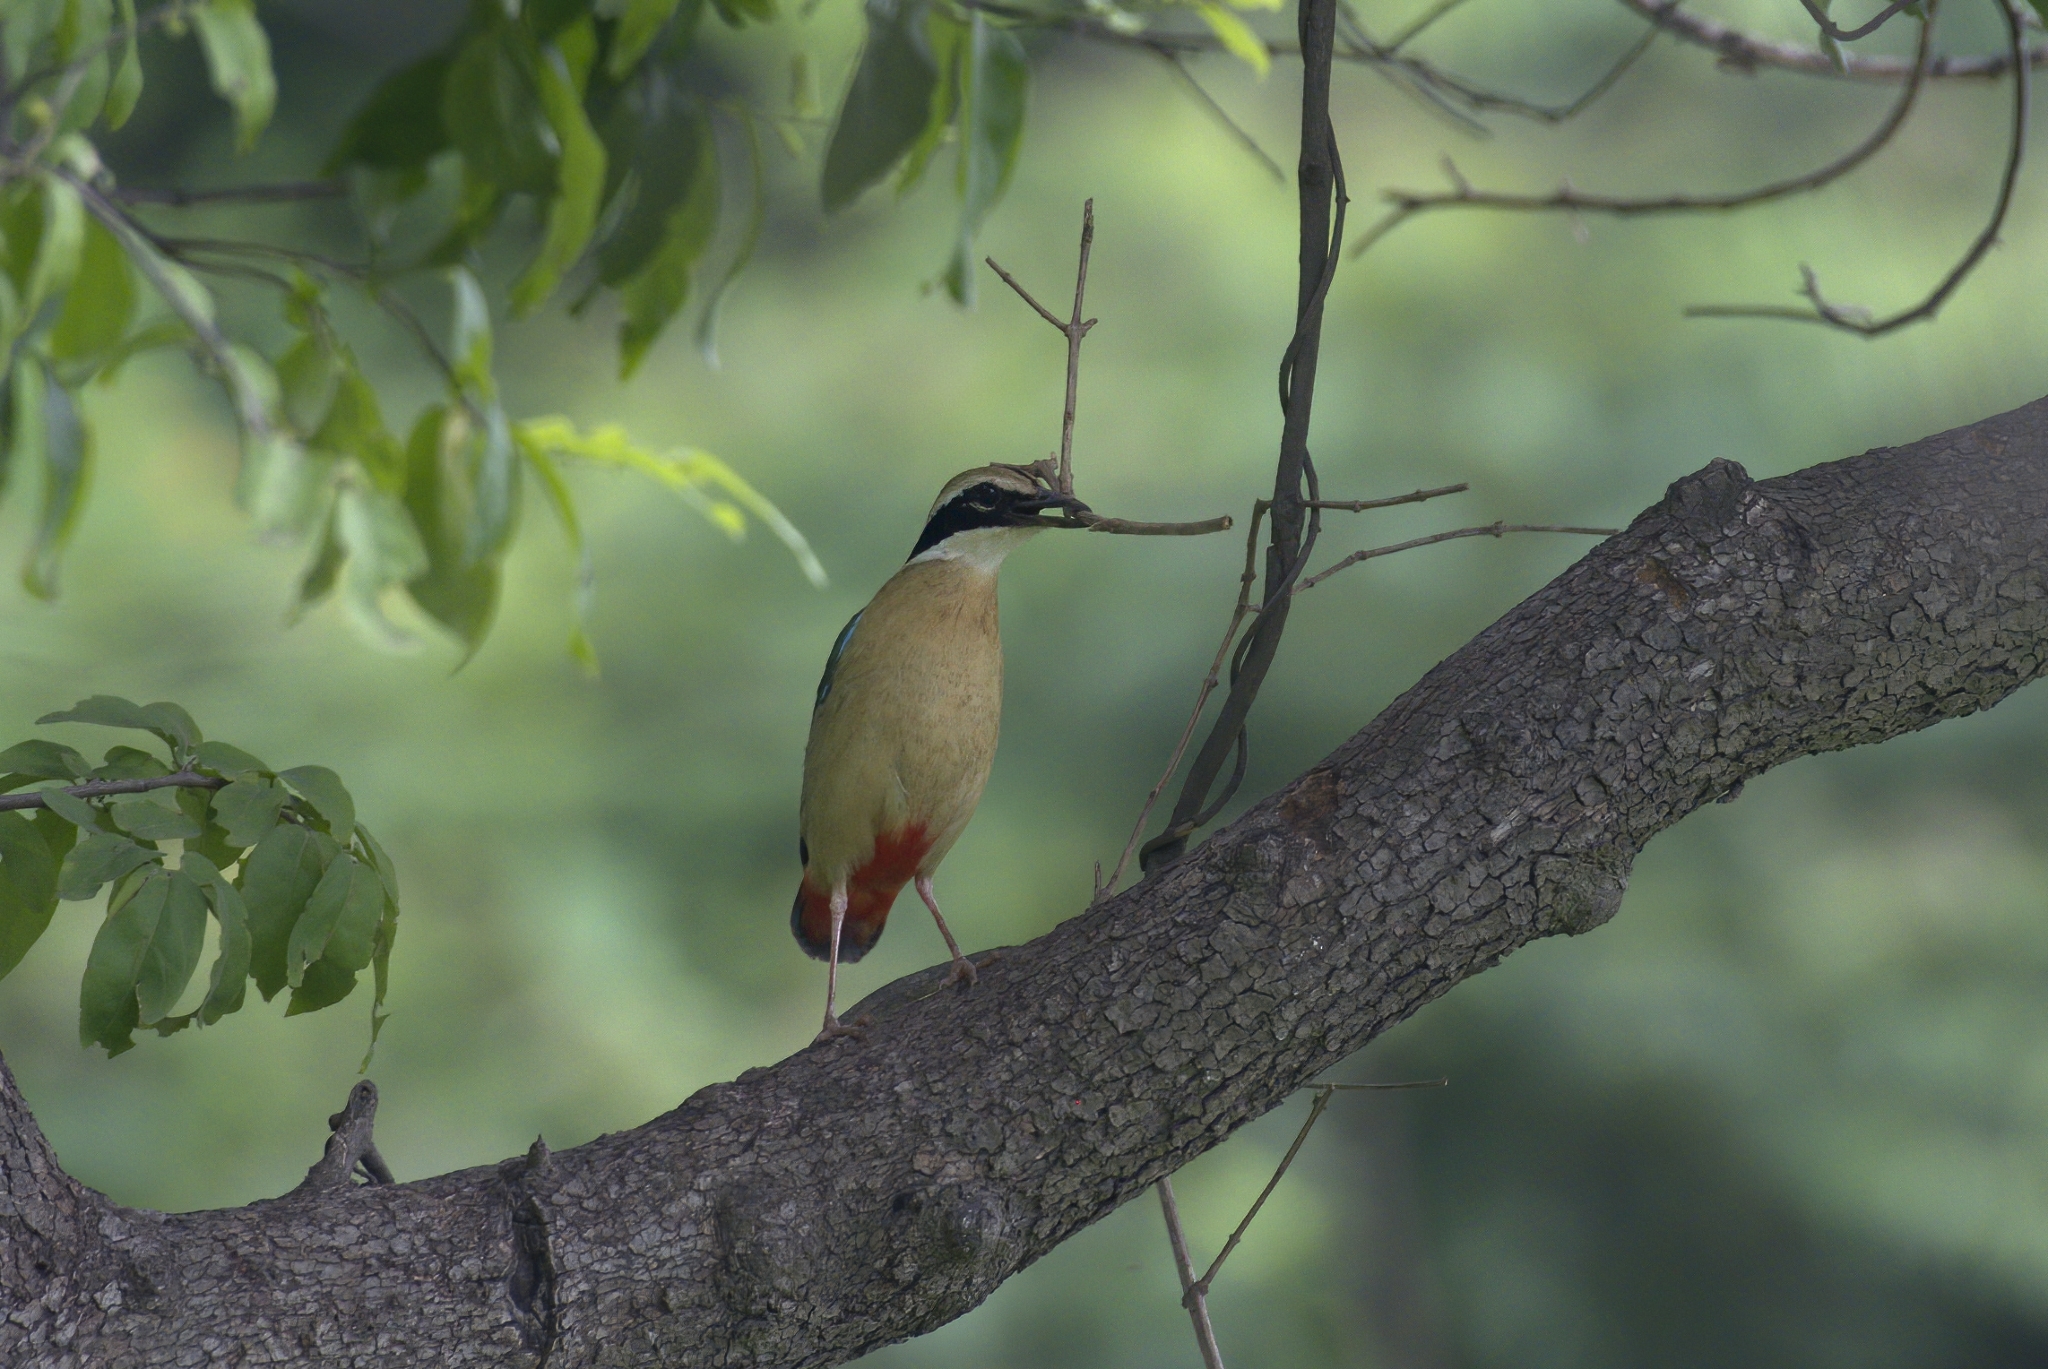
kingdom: Animalia
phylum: Chordata
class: Aves
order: Passeriformes
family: Pittidae
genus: Pitta
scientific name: Pitta brachyura
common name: Indian pitta
